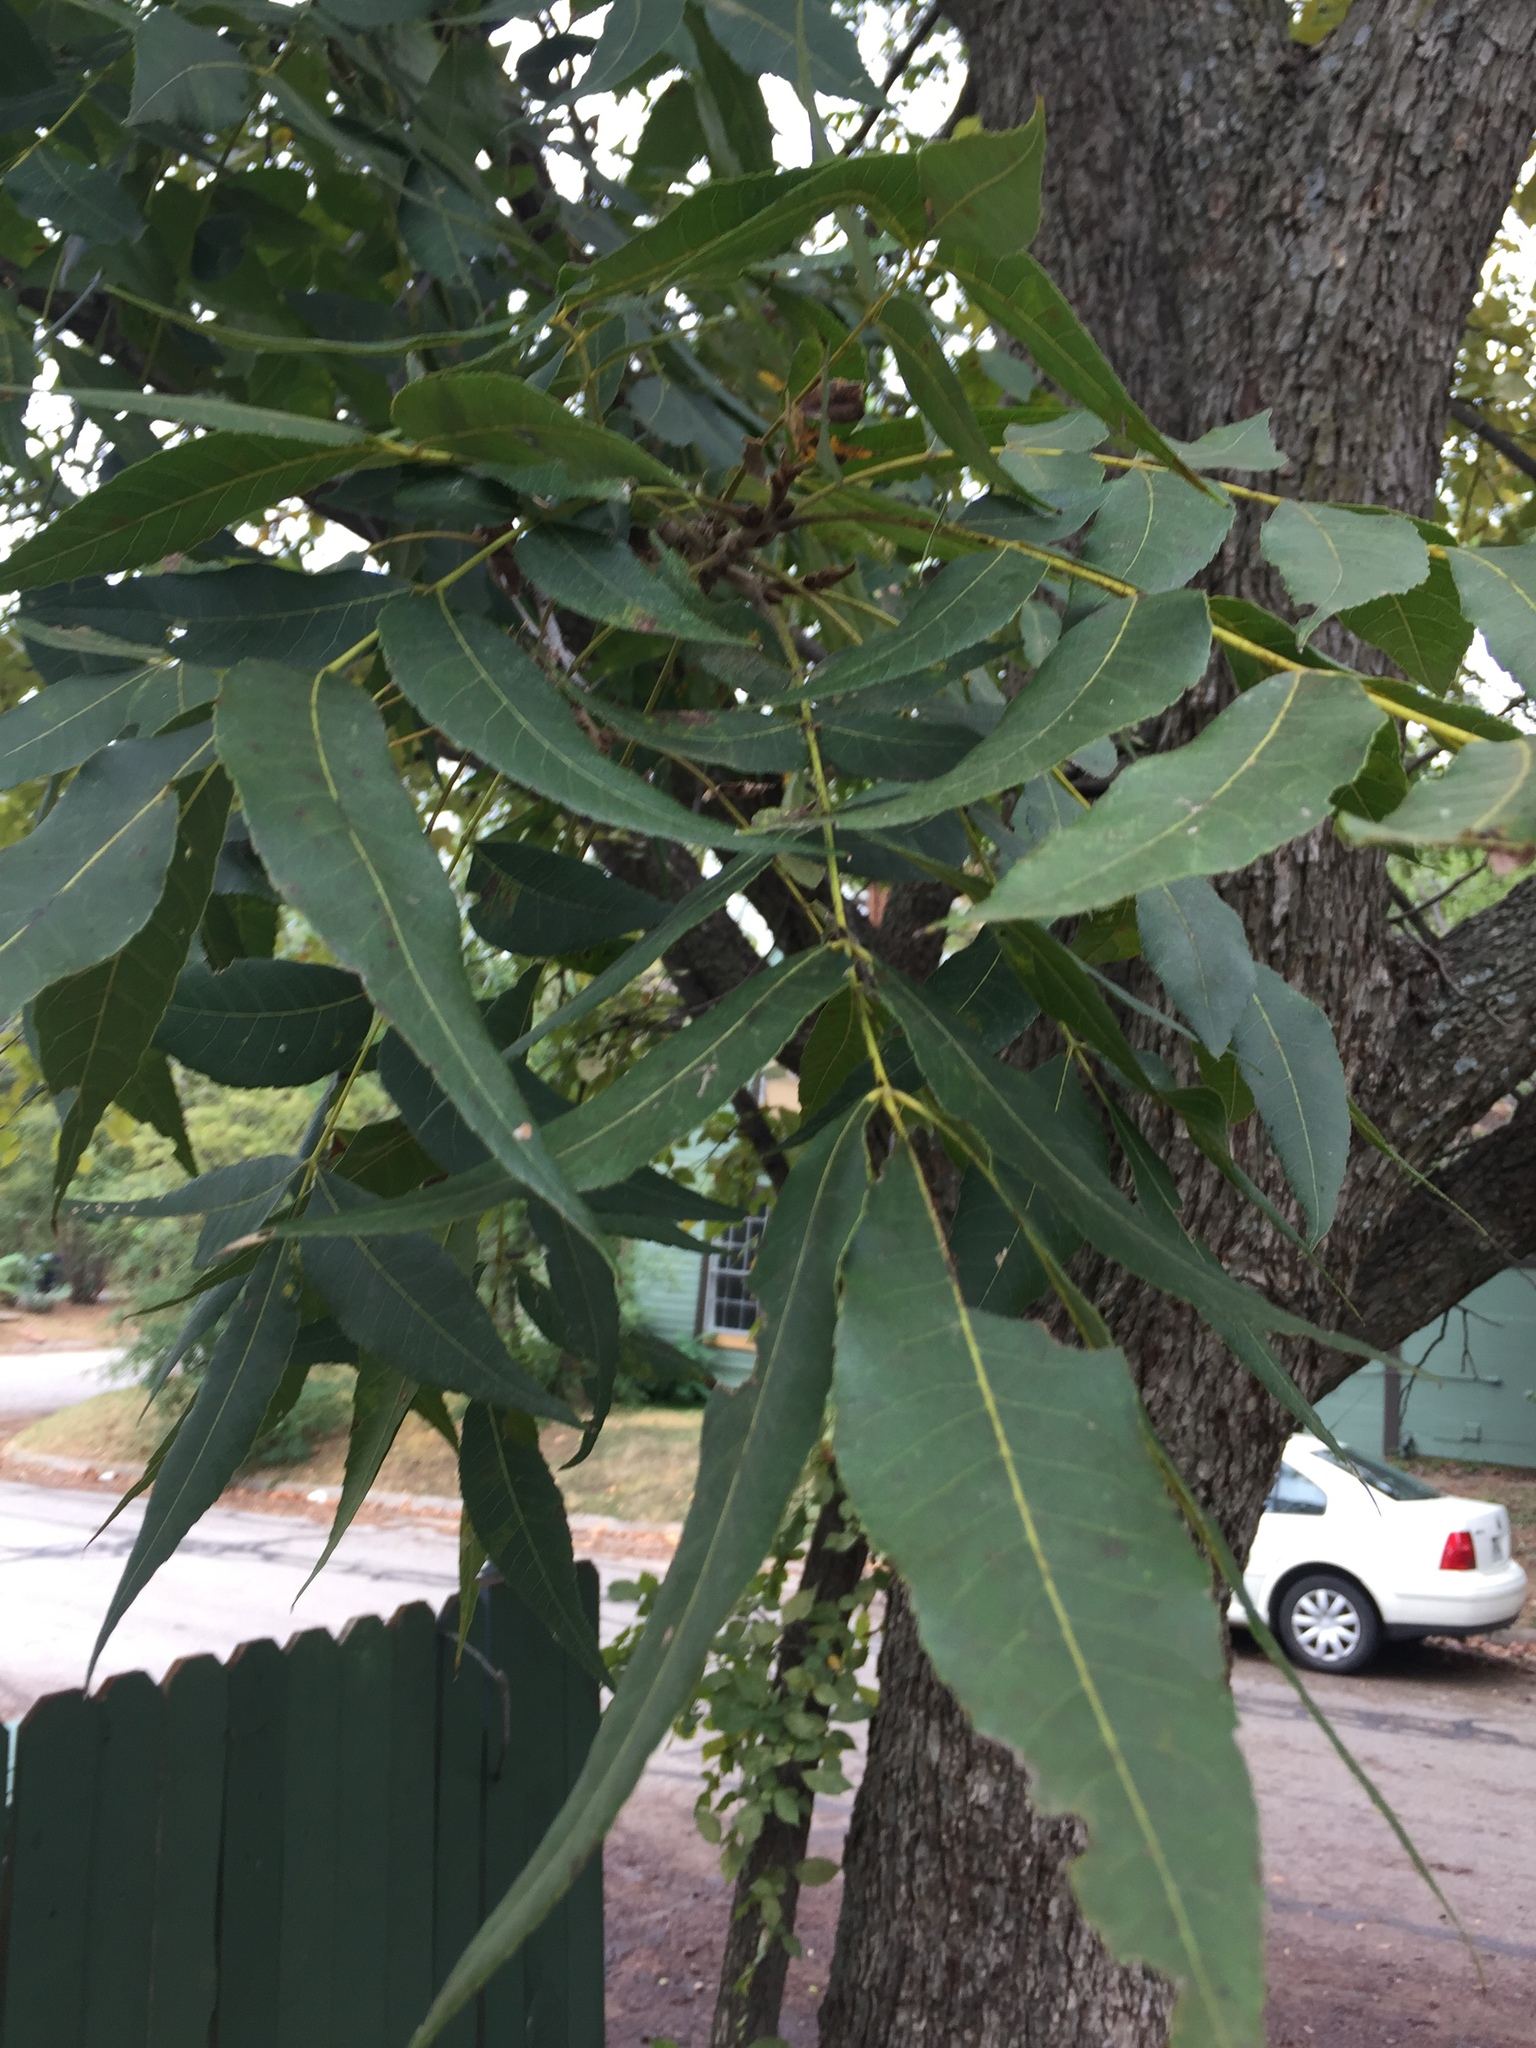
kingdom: Plantae
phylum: Tracheophyta
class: Magnoliopsida
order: Fagales
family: Juglandaceae
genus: Carya
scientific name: Carya illinoinensis
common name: Pecan
